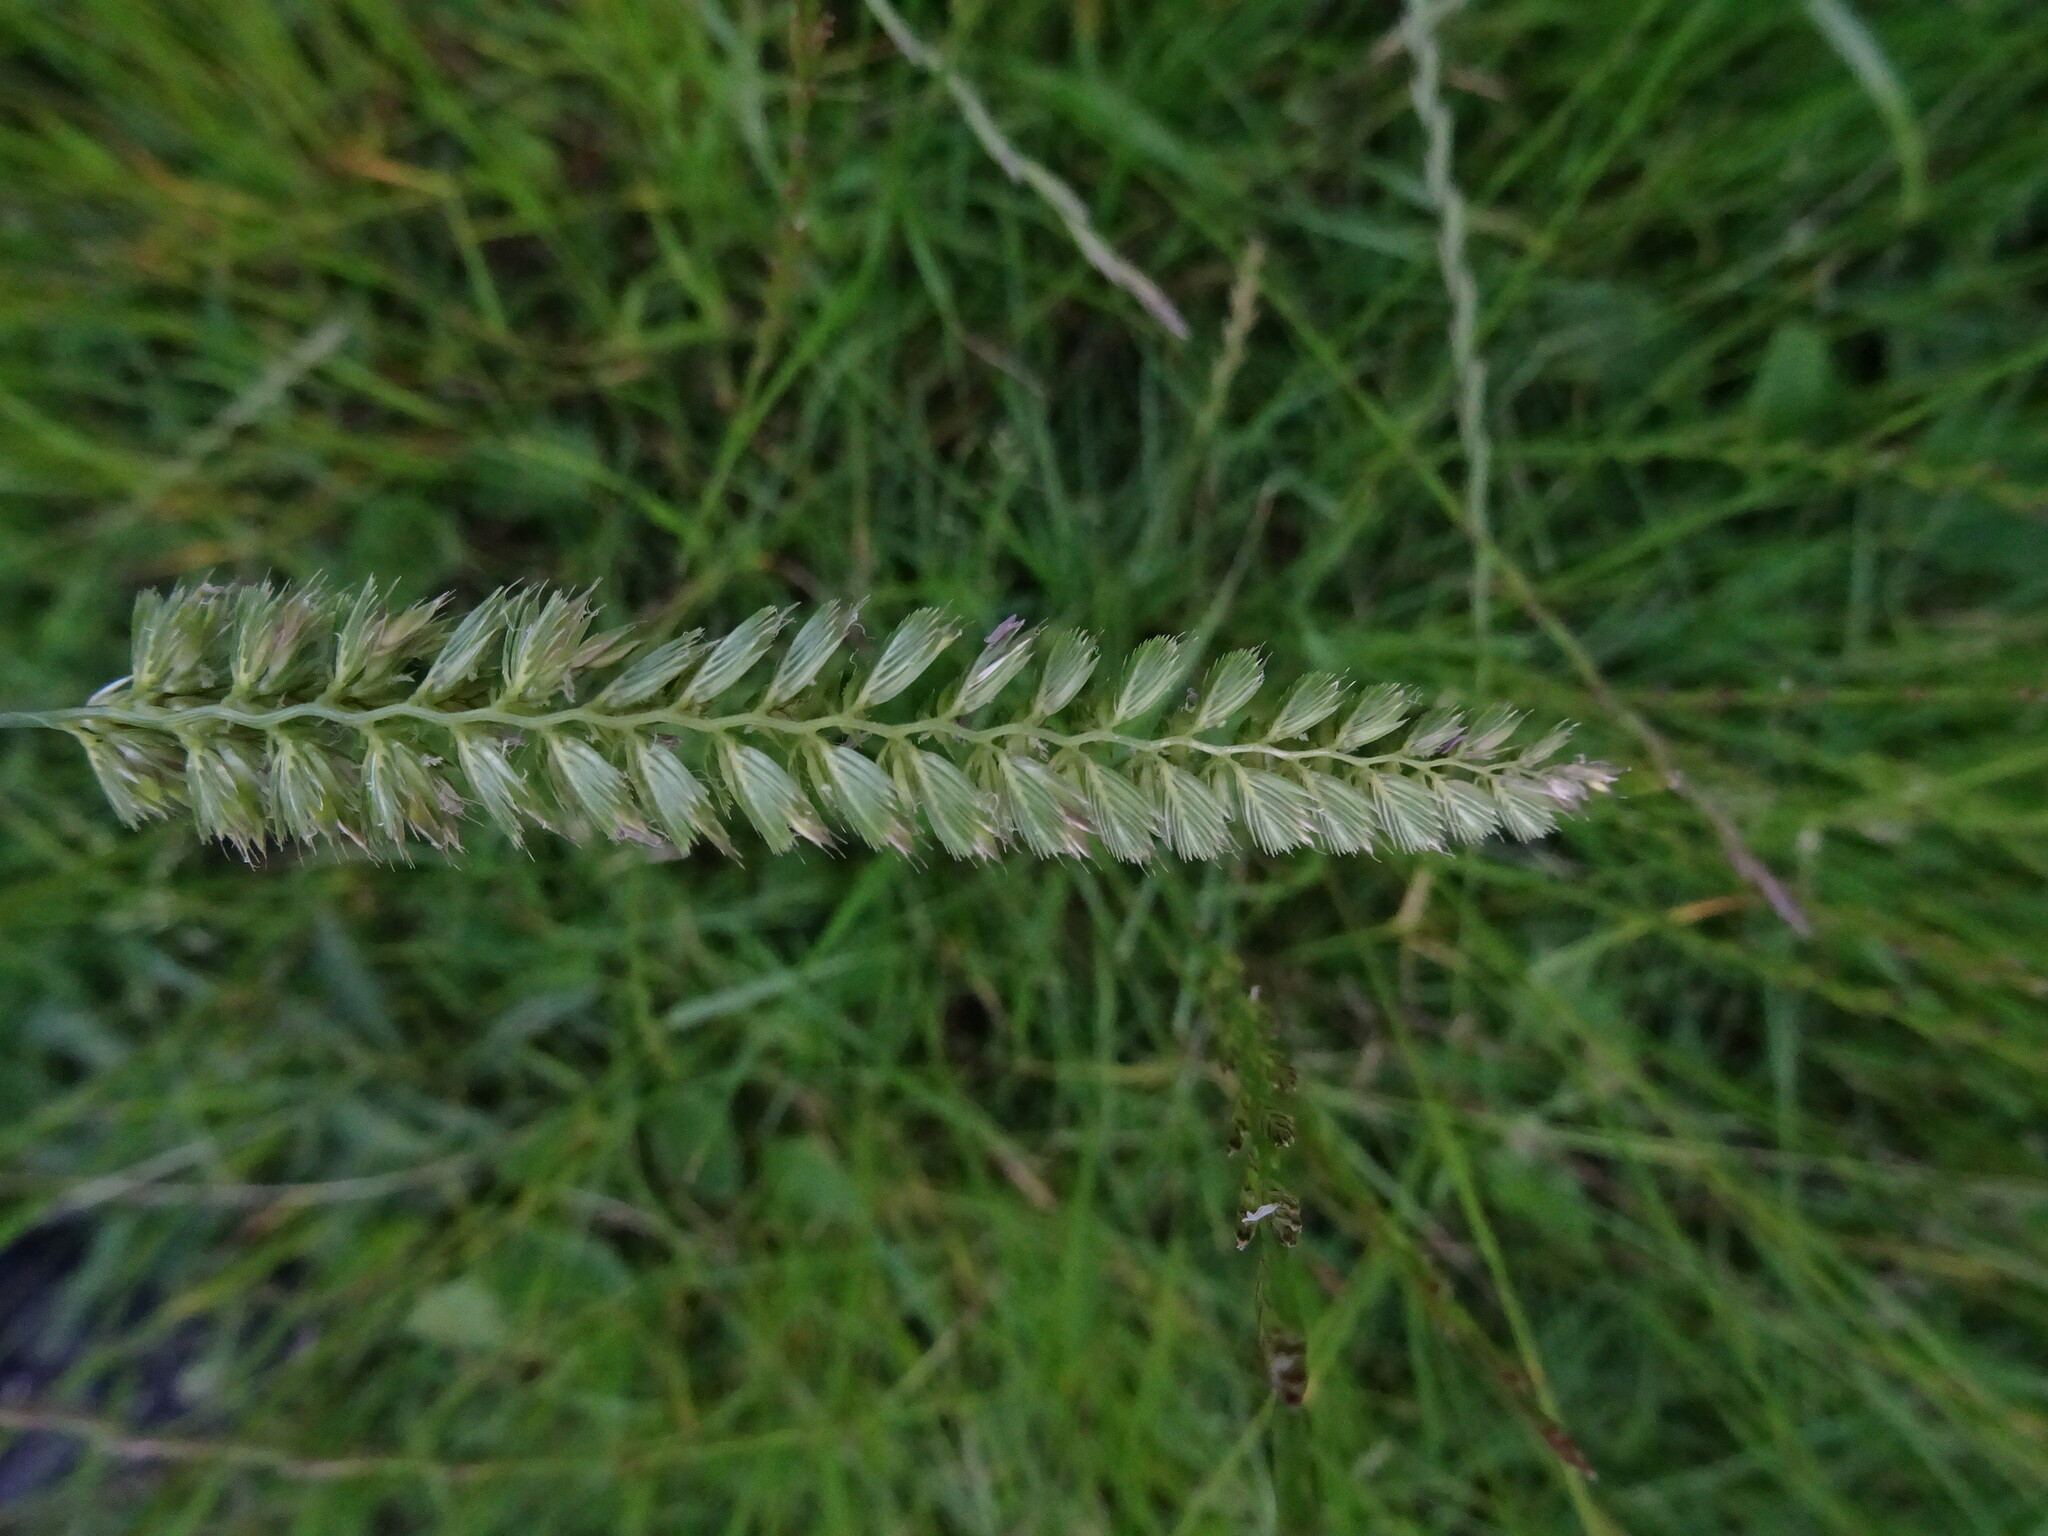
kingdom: Plantae
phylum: Tracheophyta
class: Liliopsida
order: Poales
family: Poaceae
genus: Cynosurus
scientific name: Cynosurus cristatus
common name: Crested dog's-tail
